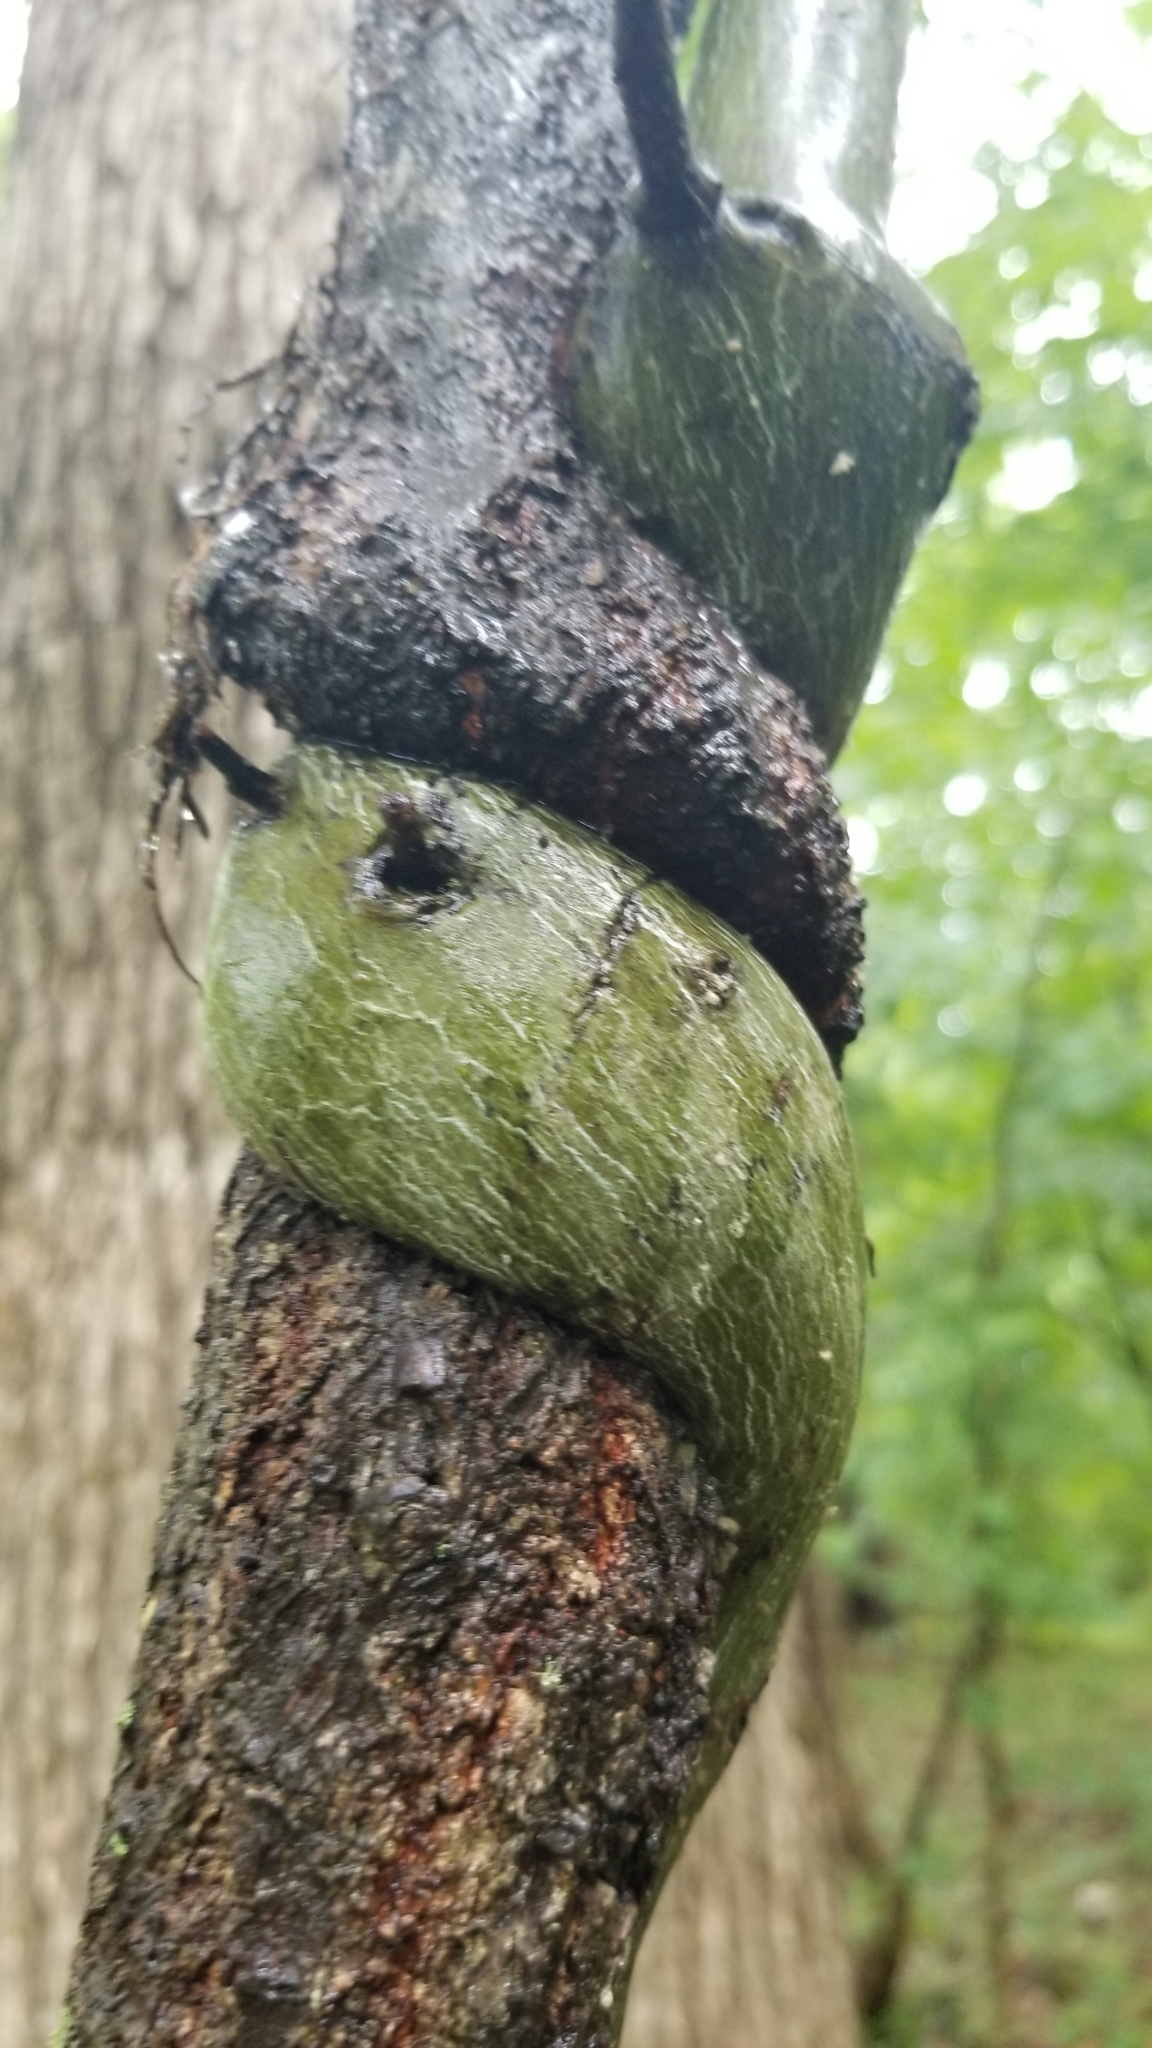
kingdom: Plantae
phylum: Tracheophyta
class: Magnoliopsida
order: Rosales
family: Rhamnaceae
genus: Berchemia
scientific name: Berchemia scandens
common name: Supplejack
